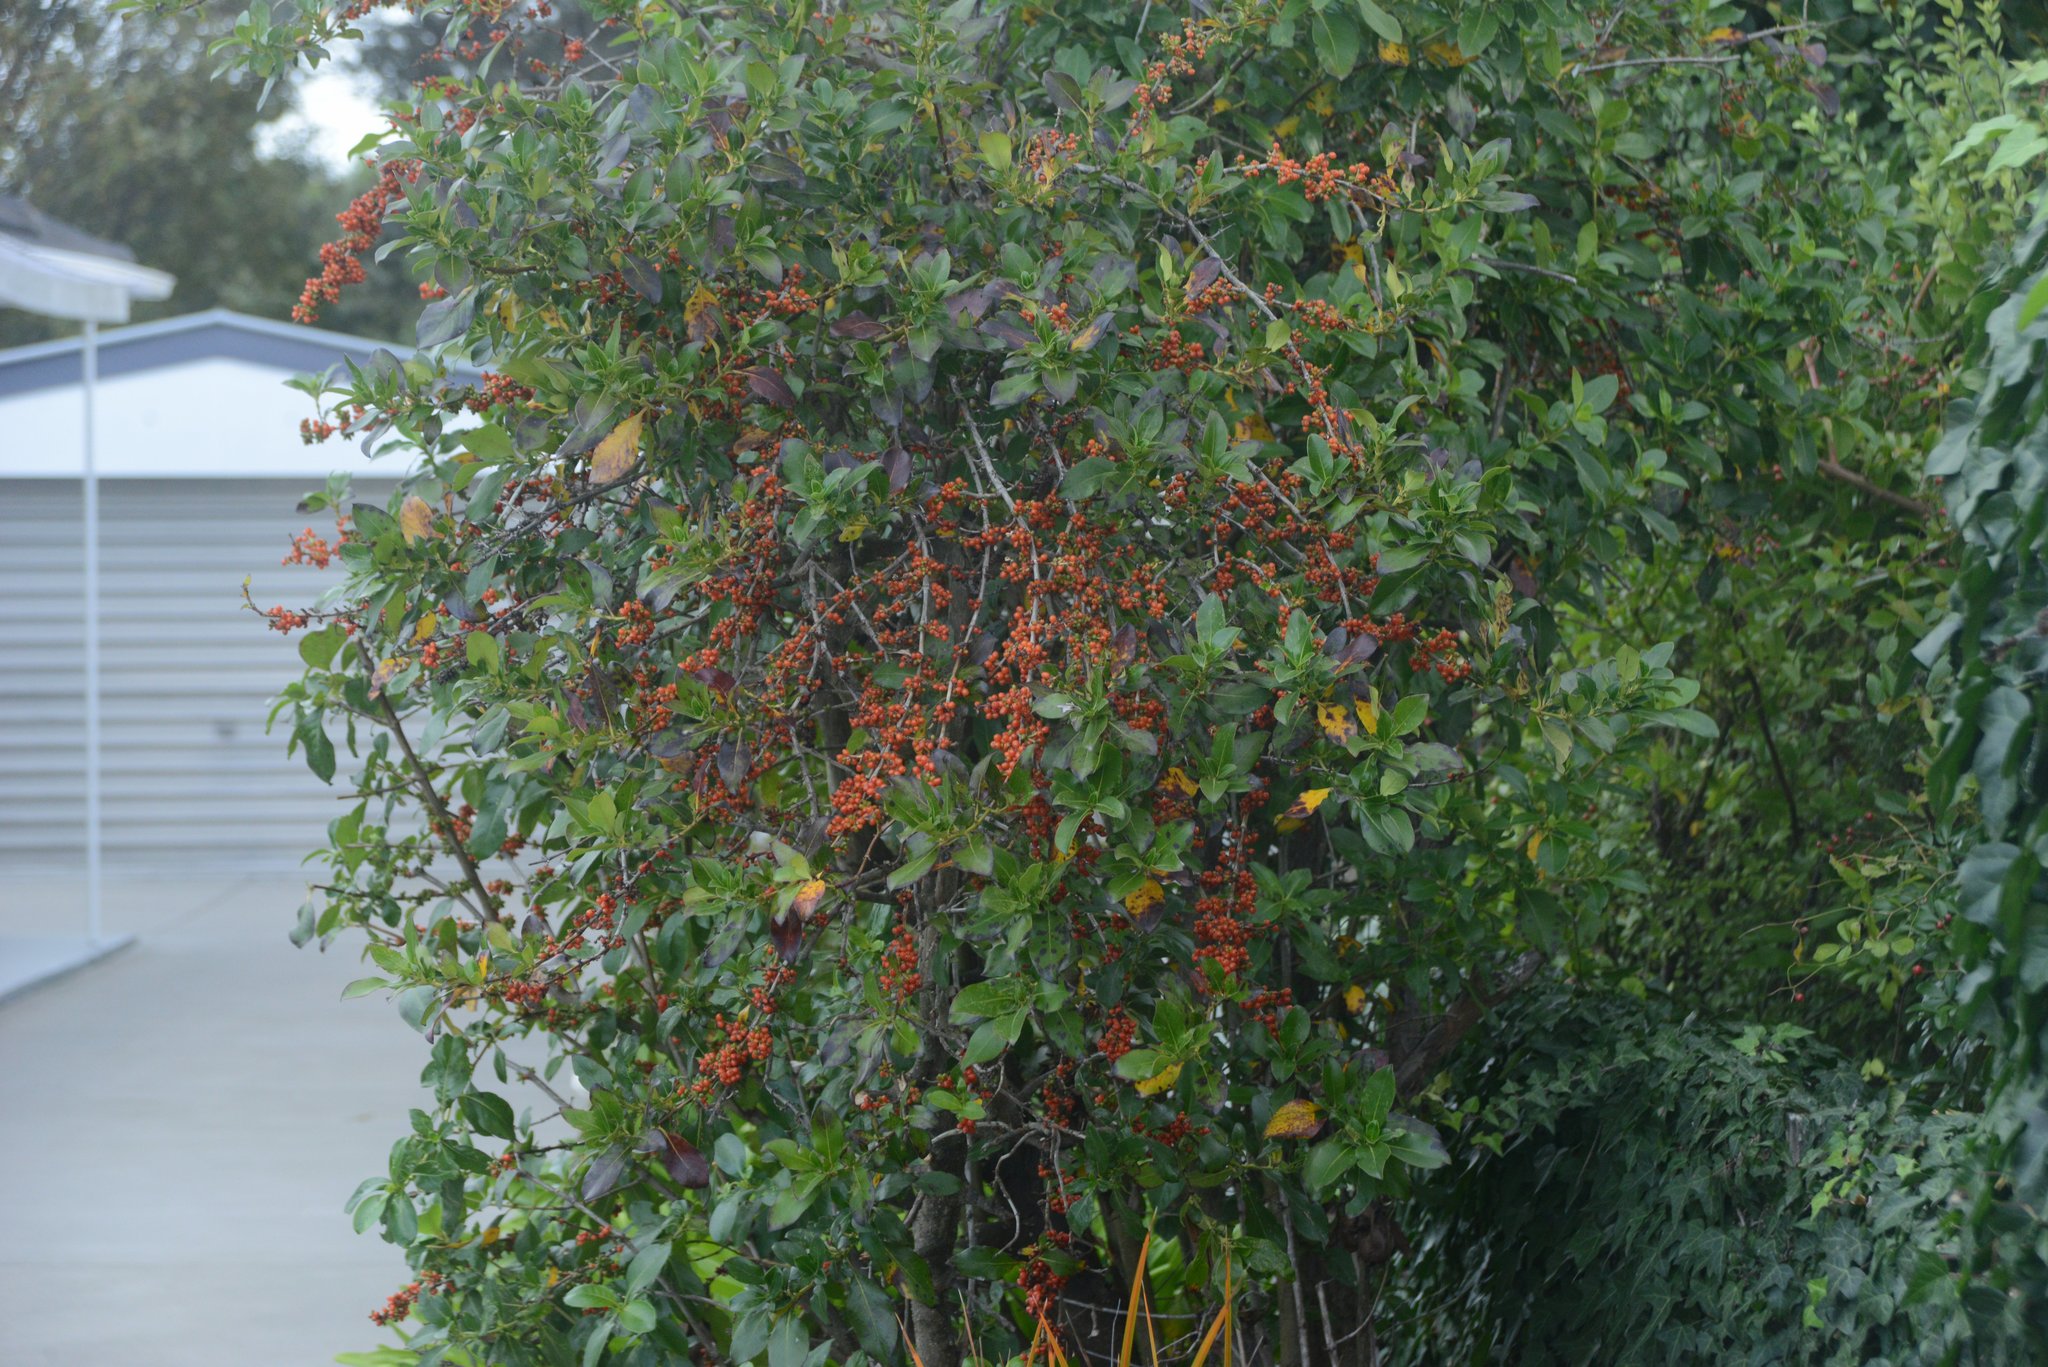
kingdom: Plantae
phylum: Tracheophyta
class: Magnoliopsida
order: Gentianales
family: Rubiaceae
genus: Coprosma
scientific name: Coprosma robusta
